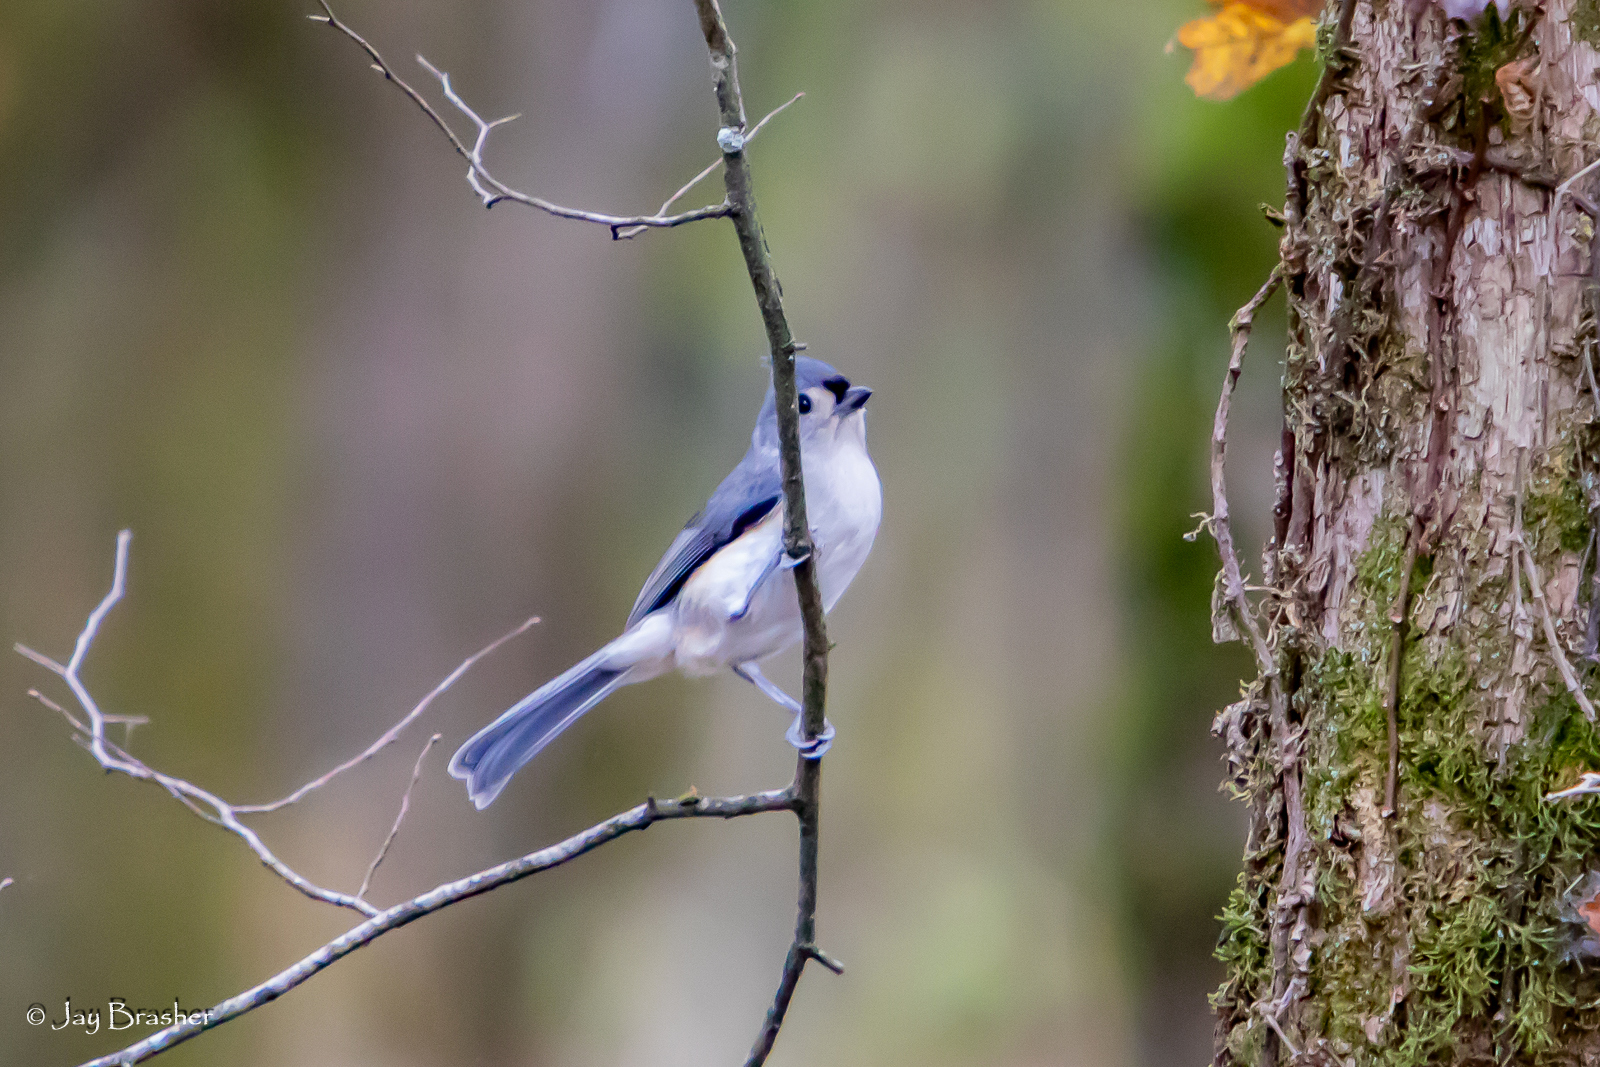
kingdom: Animalia
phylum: Chordata
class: Aves
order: Passeriformes
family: Paridae
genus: Baeolophus
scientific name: Baeolophus bicolor
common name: Tufted titmouse
